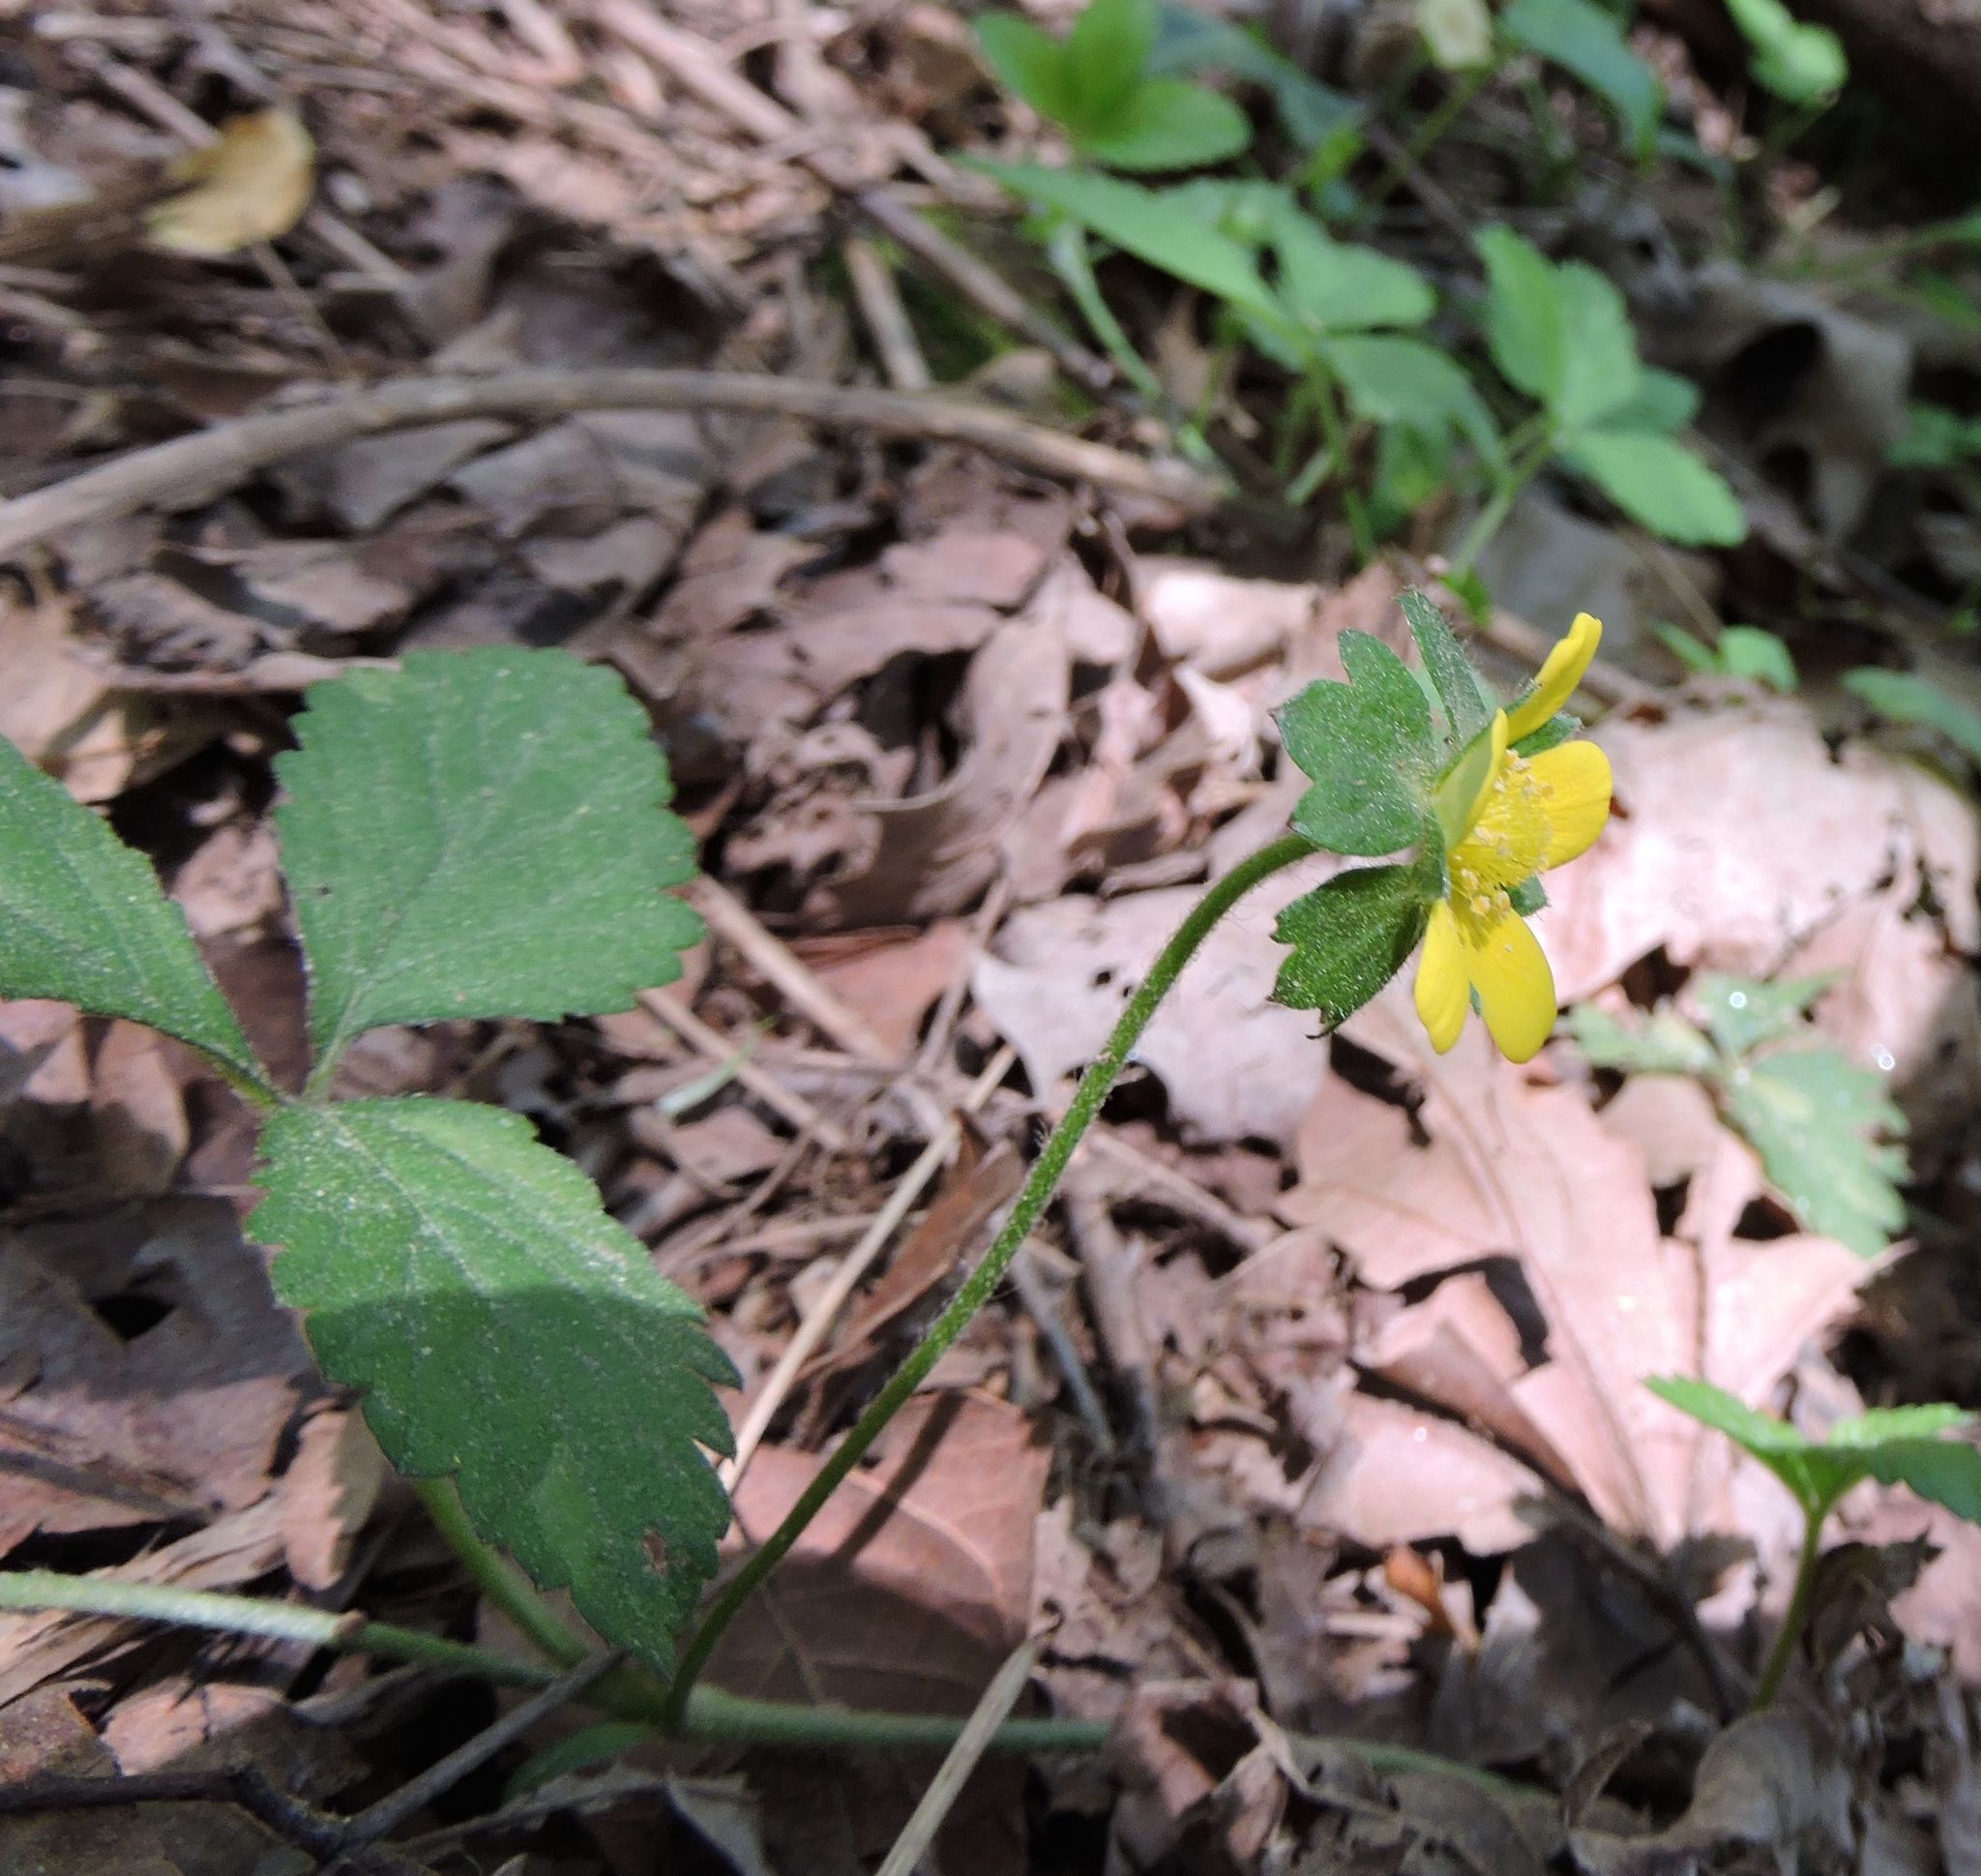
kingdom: Plantae
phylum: Tracheophyta
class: Magnoliopsida
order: Rosales
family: Rosaceae
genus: Potentilla
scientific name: Potentilla indica
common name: Yellow-flowered strawberry
